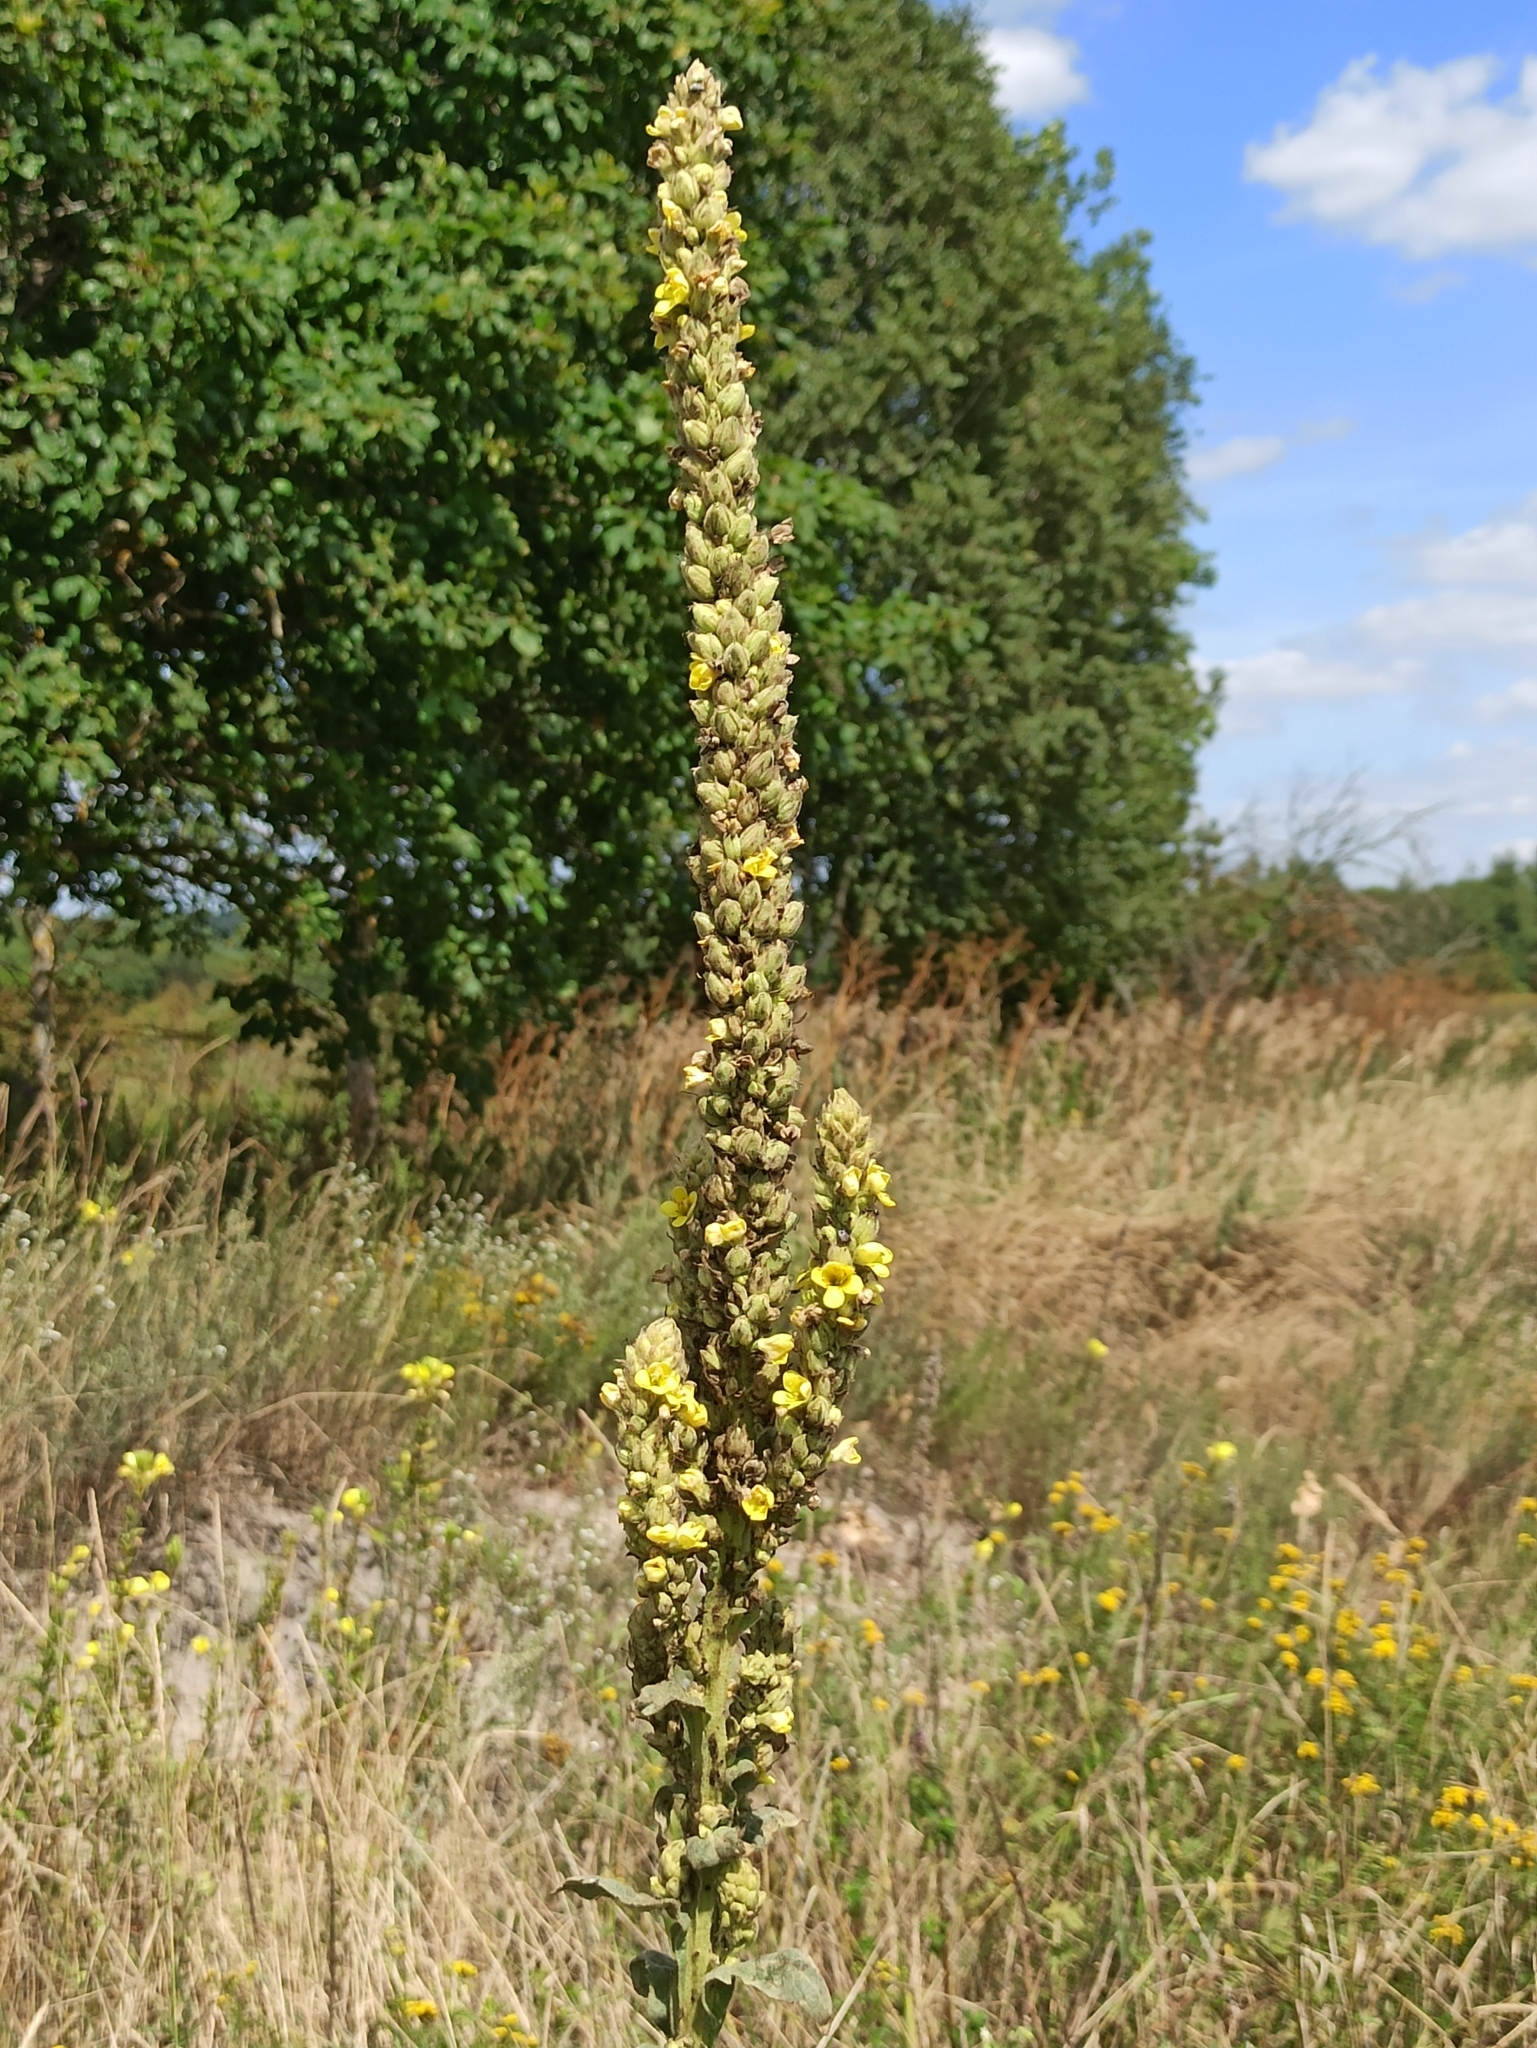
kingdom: Plantae
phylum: Tracheophyta
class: Magnoliopsida
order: Lamiales
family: Scrophulariaceae
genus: Verbascum
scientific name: Verbascum thapsus
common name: Common mullein
